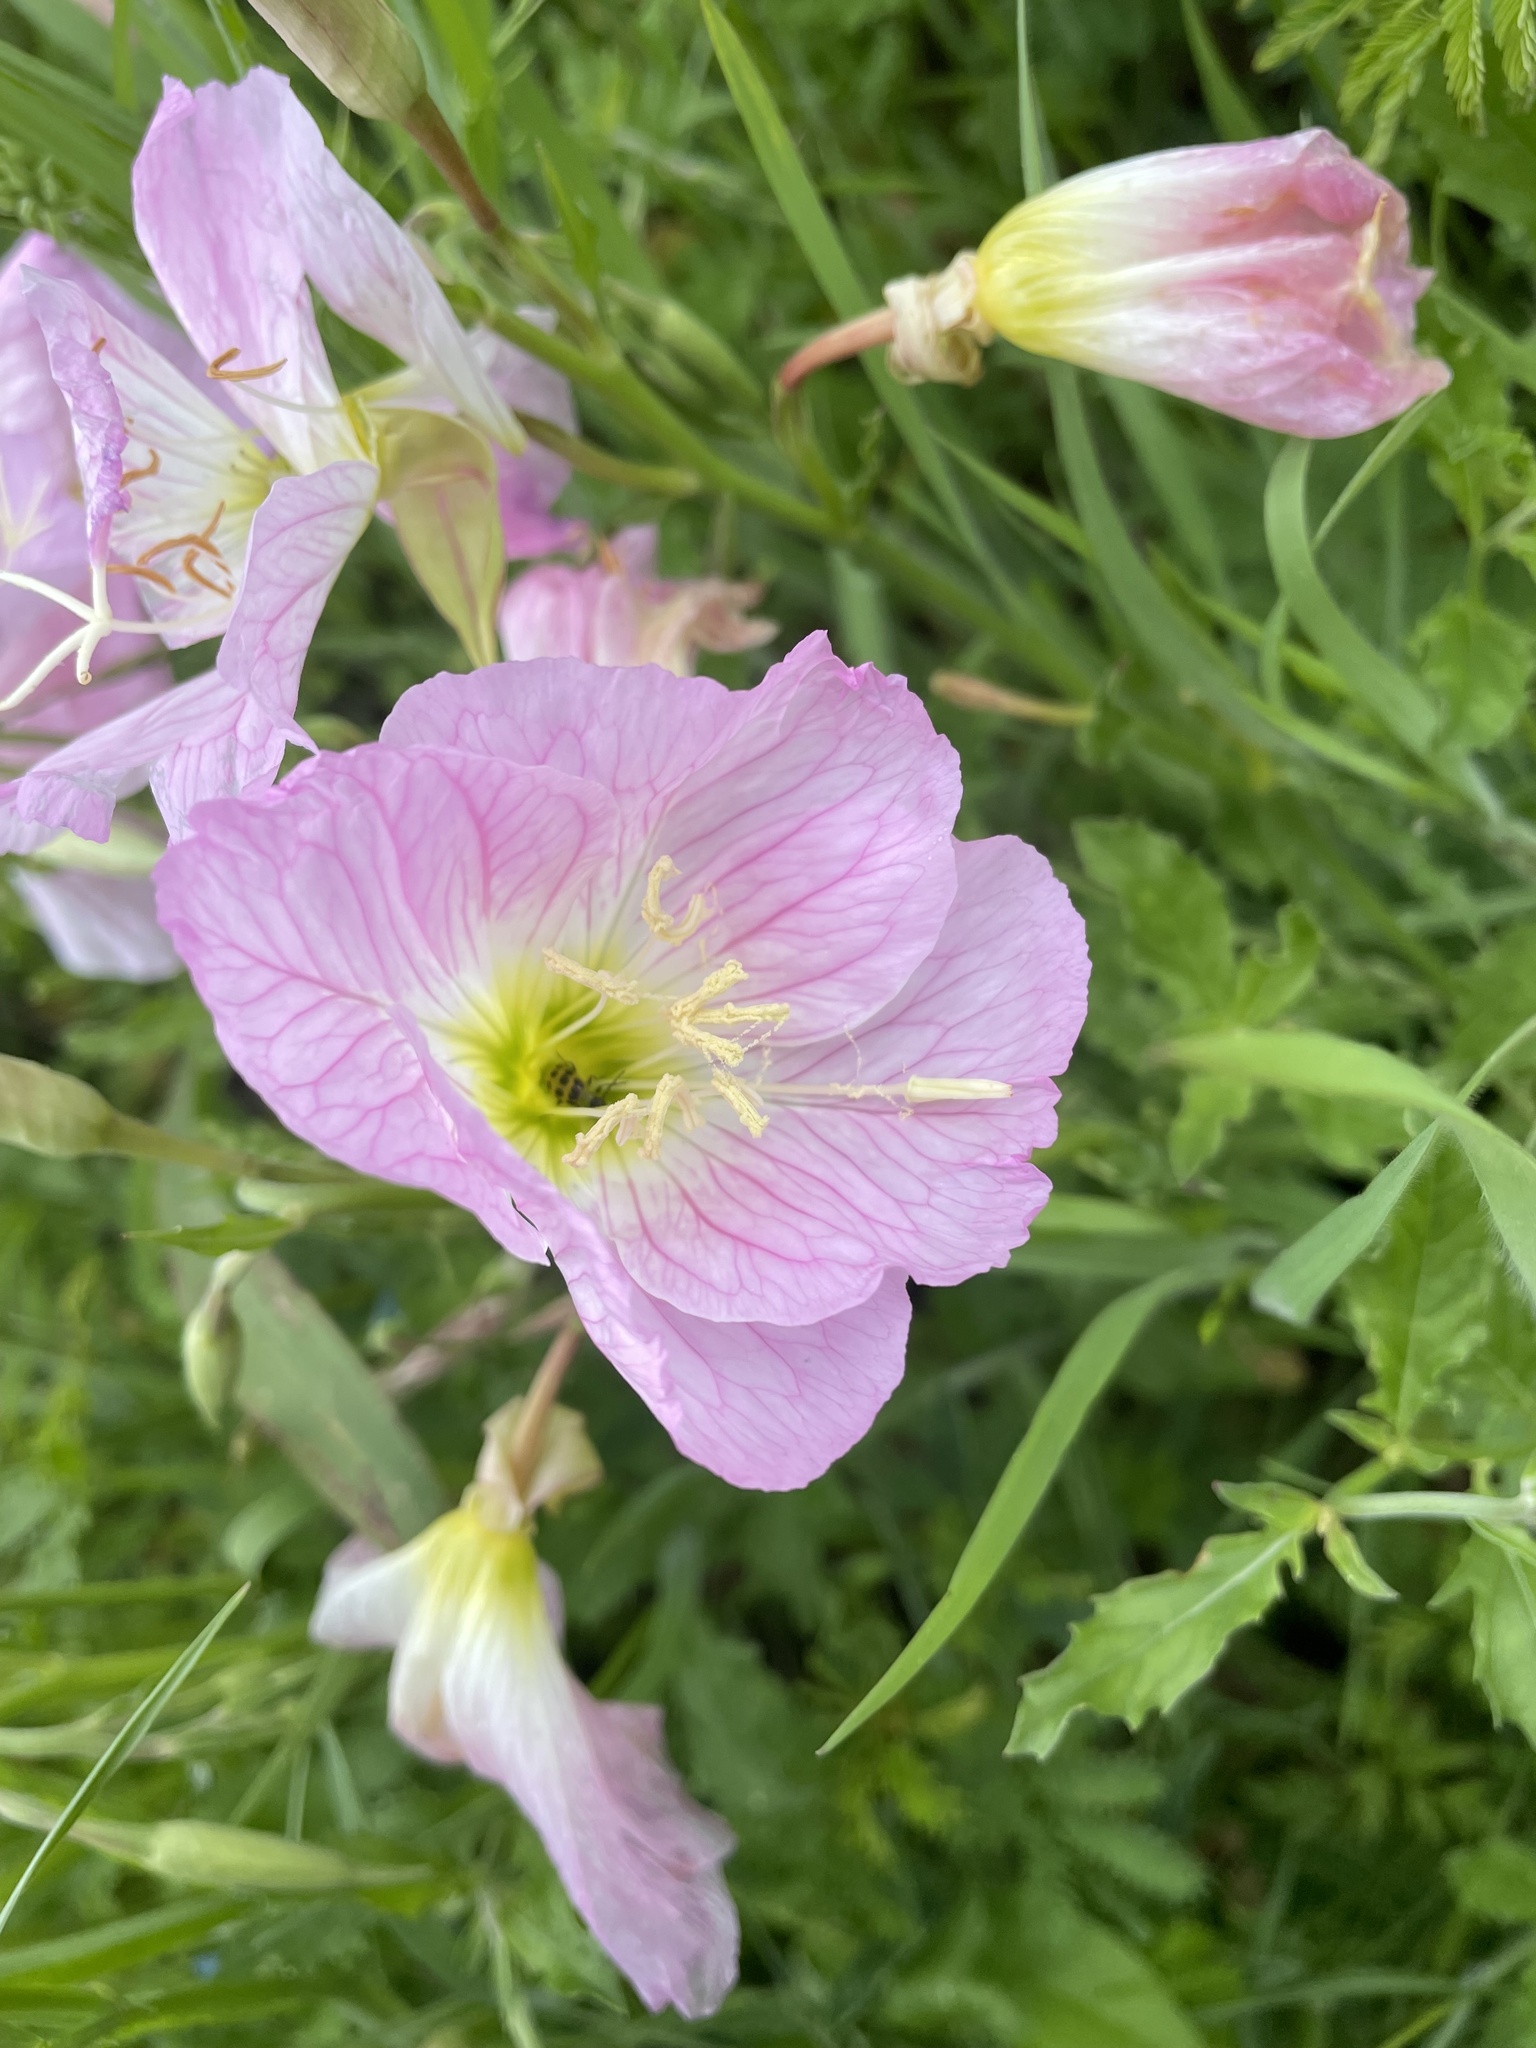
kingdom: Plantae
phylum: Tracheophyta
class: Magnoliopsida
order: Myrtales
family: Onagraceae
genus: Oenothera
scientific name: Oenothera speciosa
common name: White evening-primrose
